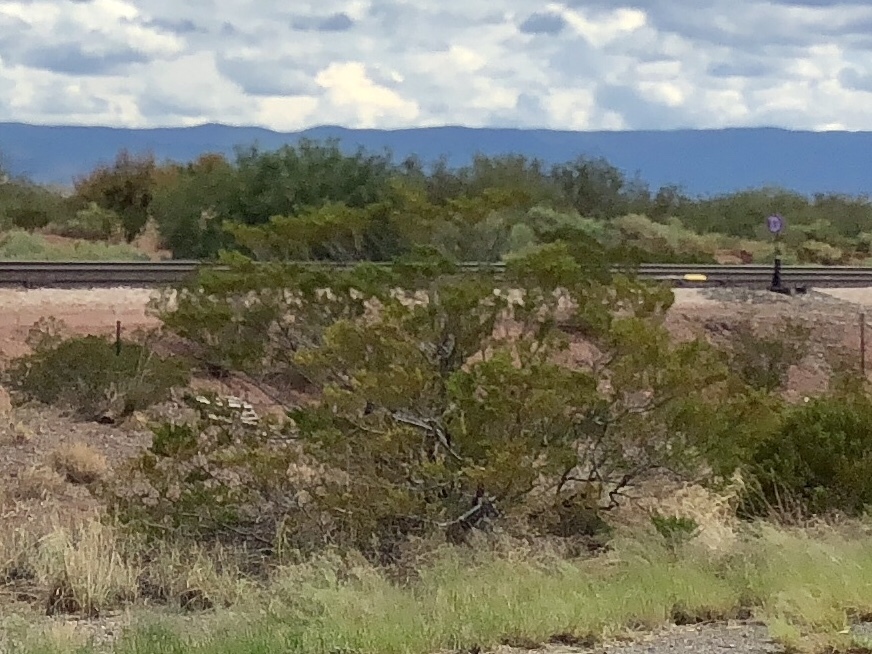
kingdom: Plantae
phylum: Tracheophyta
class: Magnoliopsida
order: Zygophyllales
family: Zygophyllaceae
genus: Larrea
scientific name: Larrea tridentata
